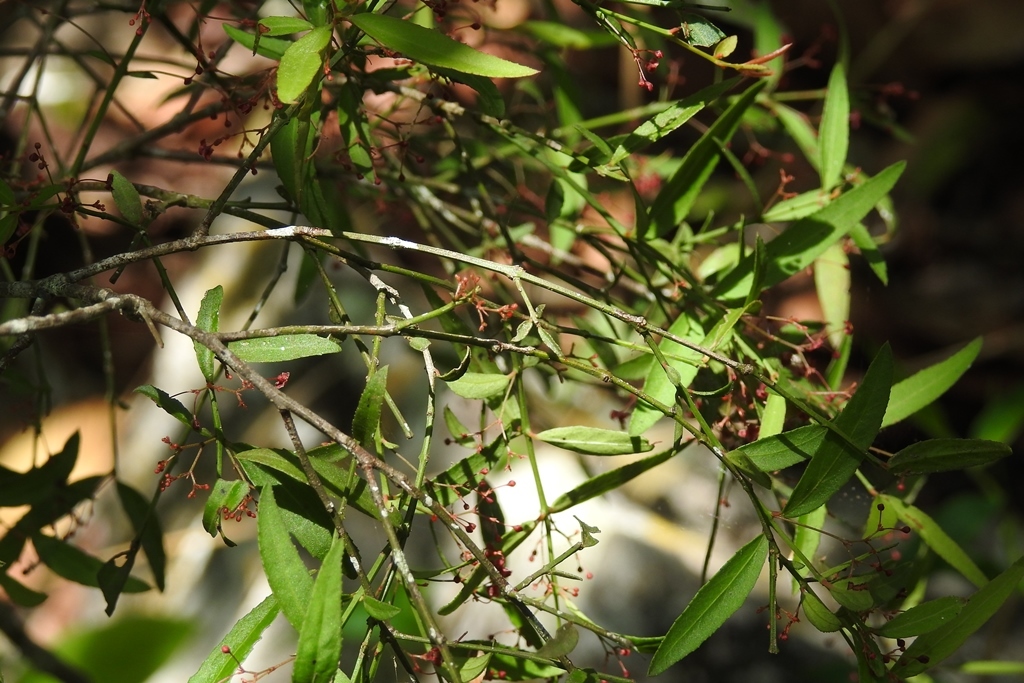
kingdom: Plantae
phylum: Tracheophyta
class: Magnoliopsida
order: Celastrales
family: Celastraceae
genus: Crossopetalum
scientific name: Crossopetalum uragoga
